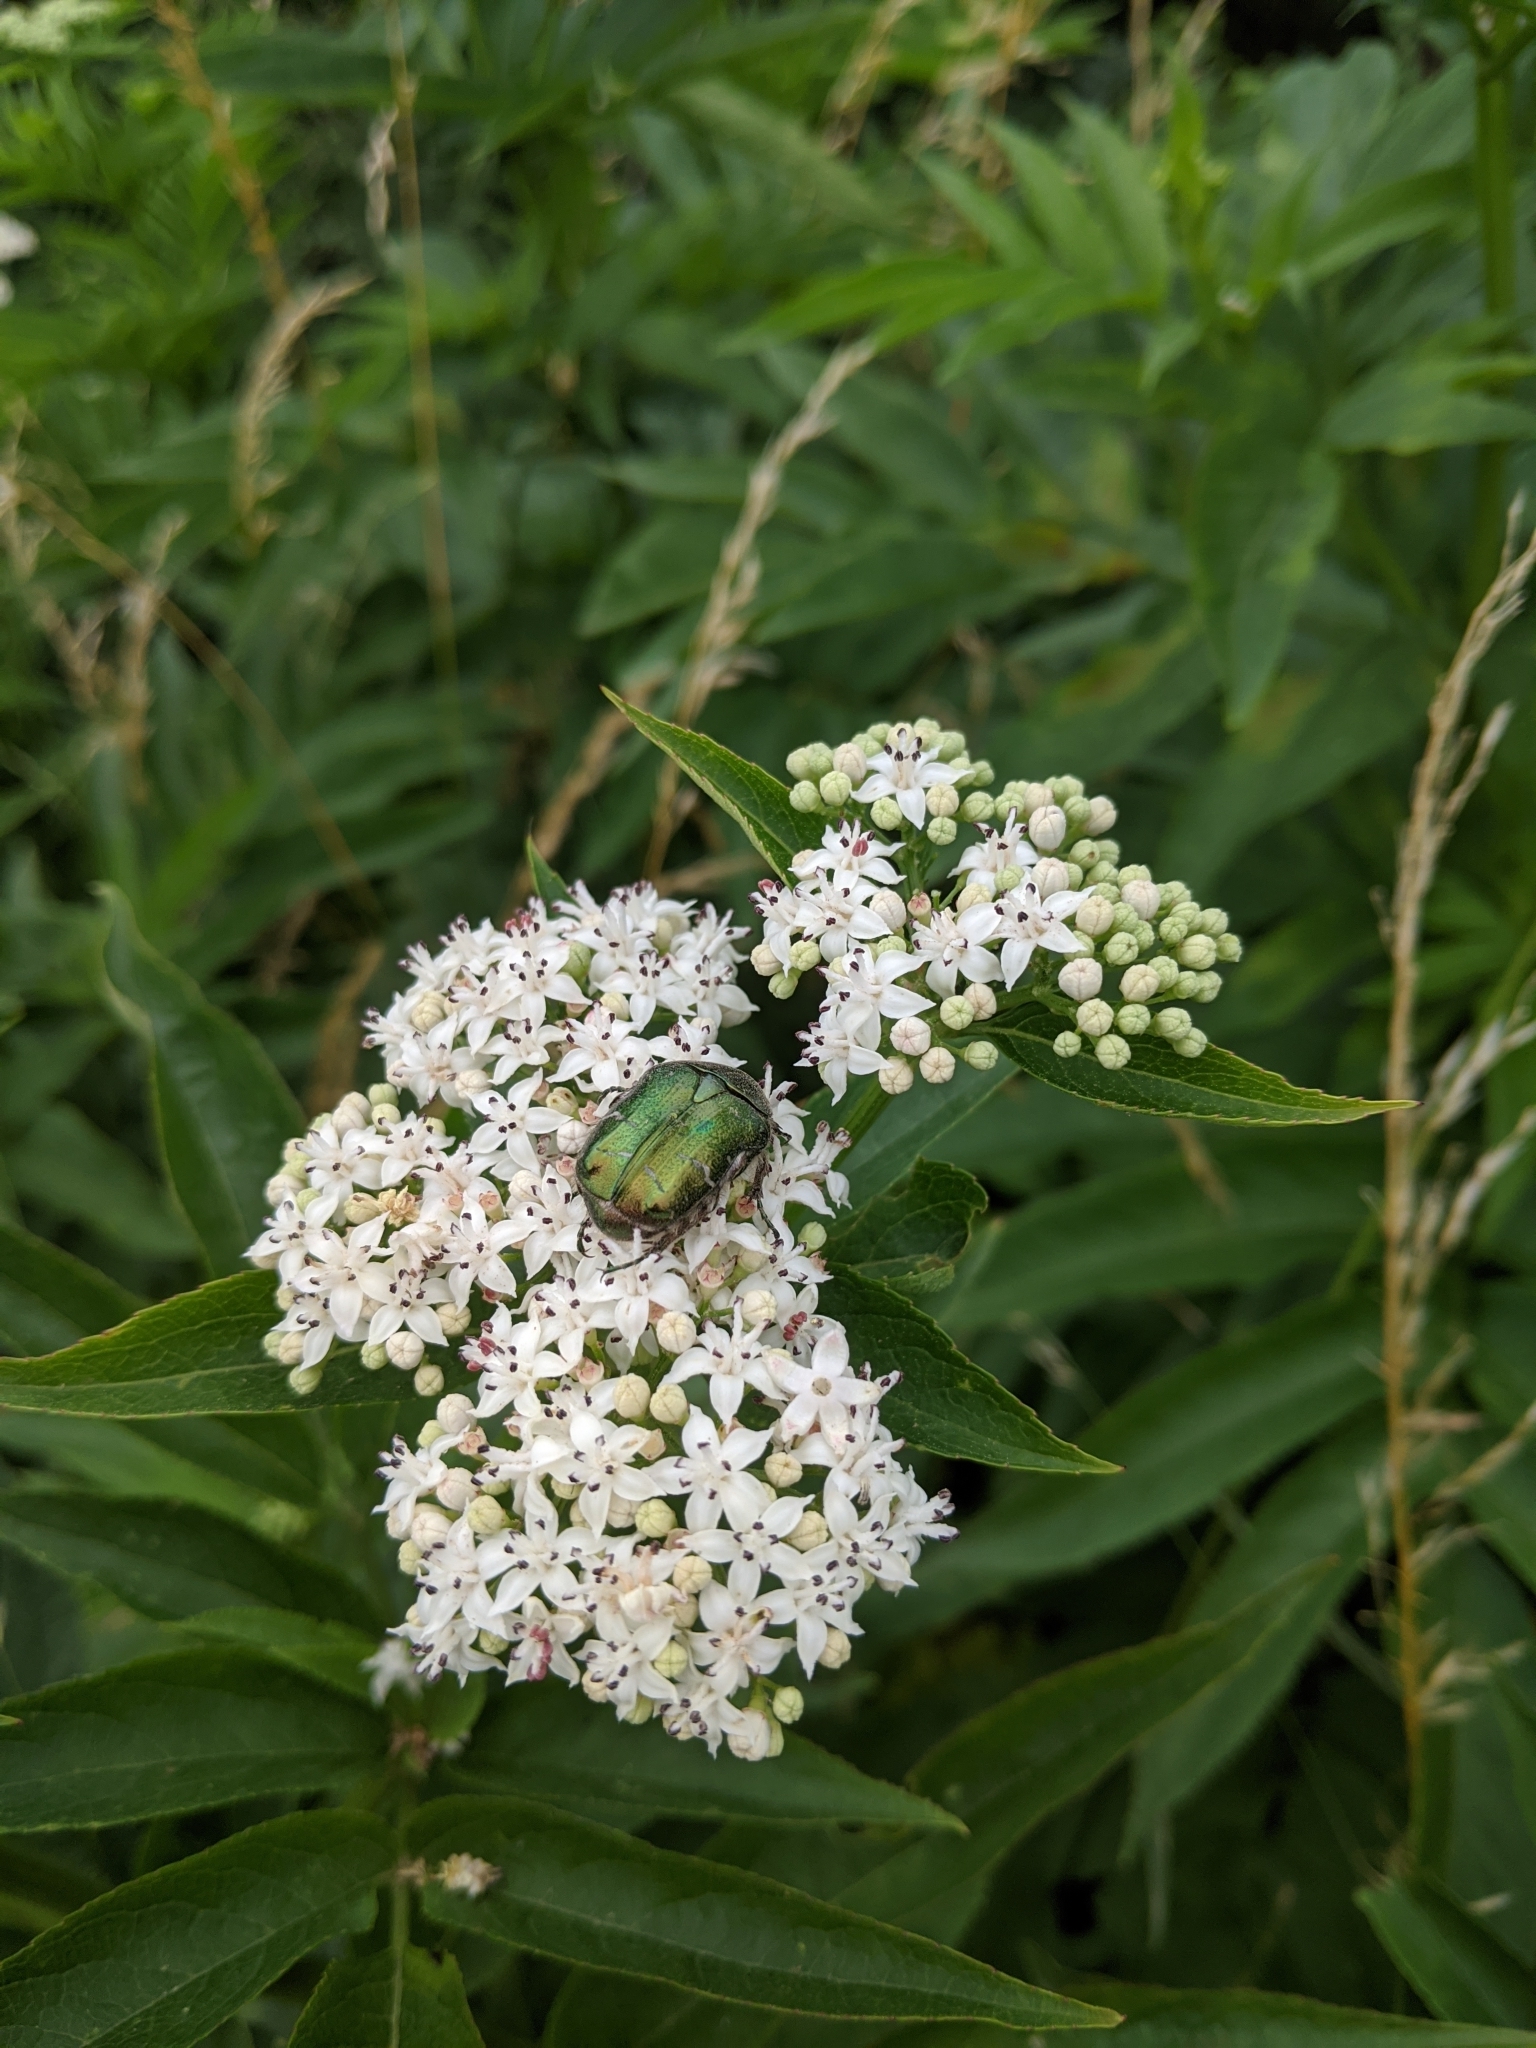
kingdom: Animalia
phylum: Arthropoda
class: Insecta
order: Coleoptera
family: Scarabaeidae
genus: Cetonia
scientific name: Cetonia aurata
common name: Rose chafer
